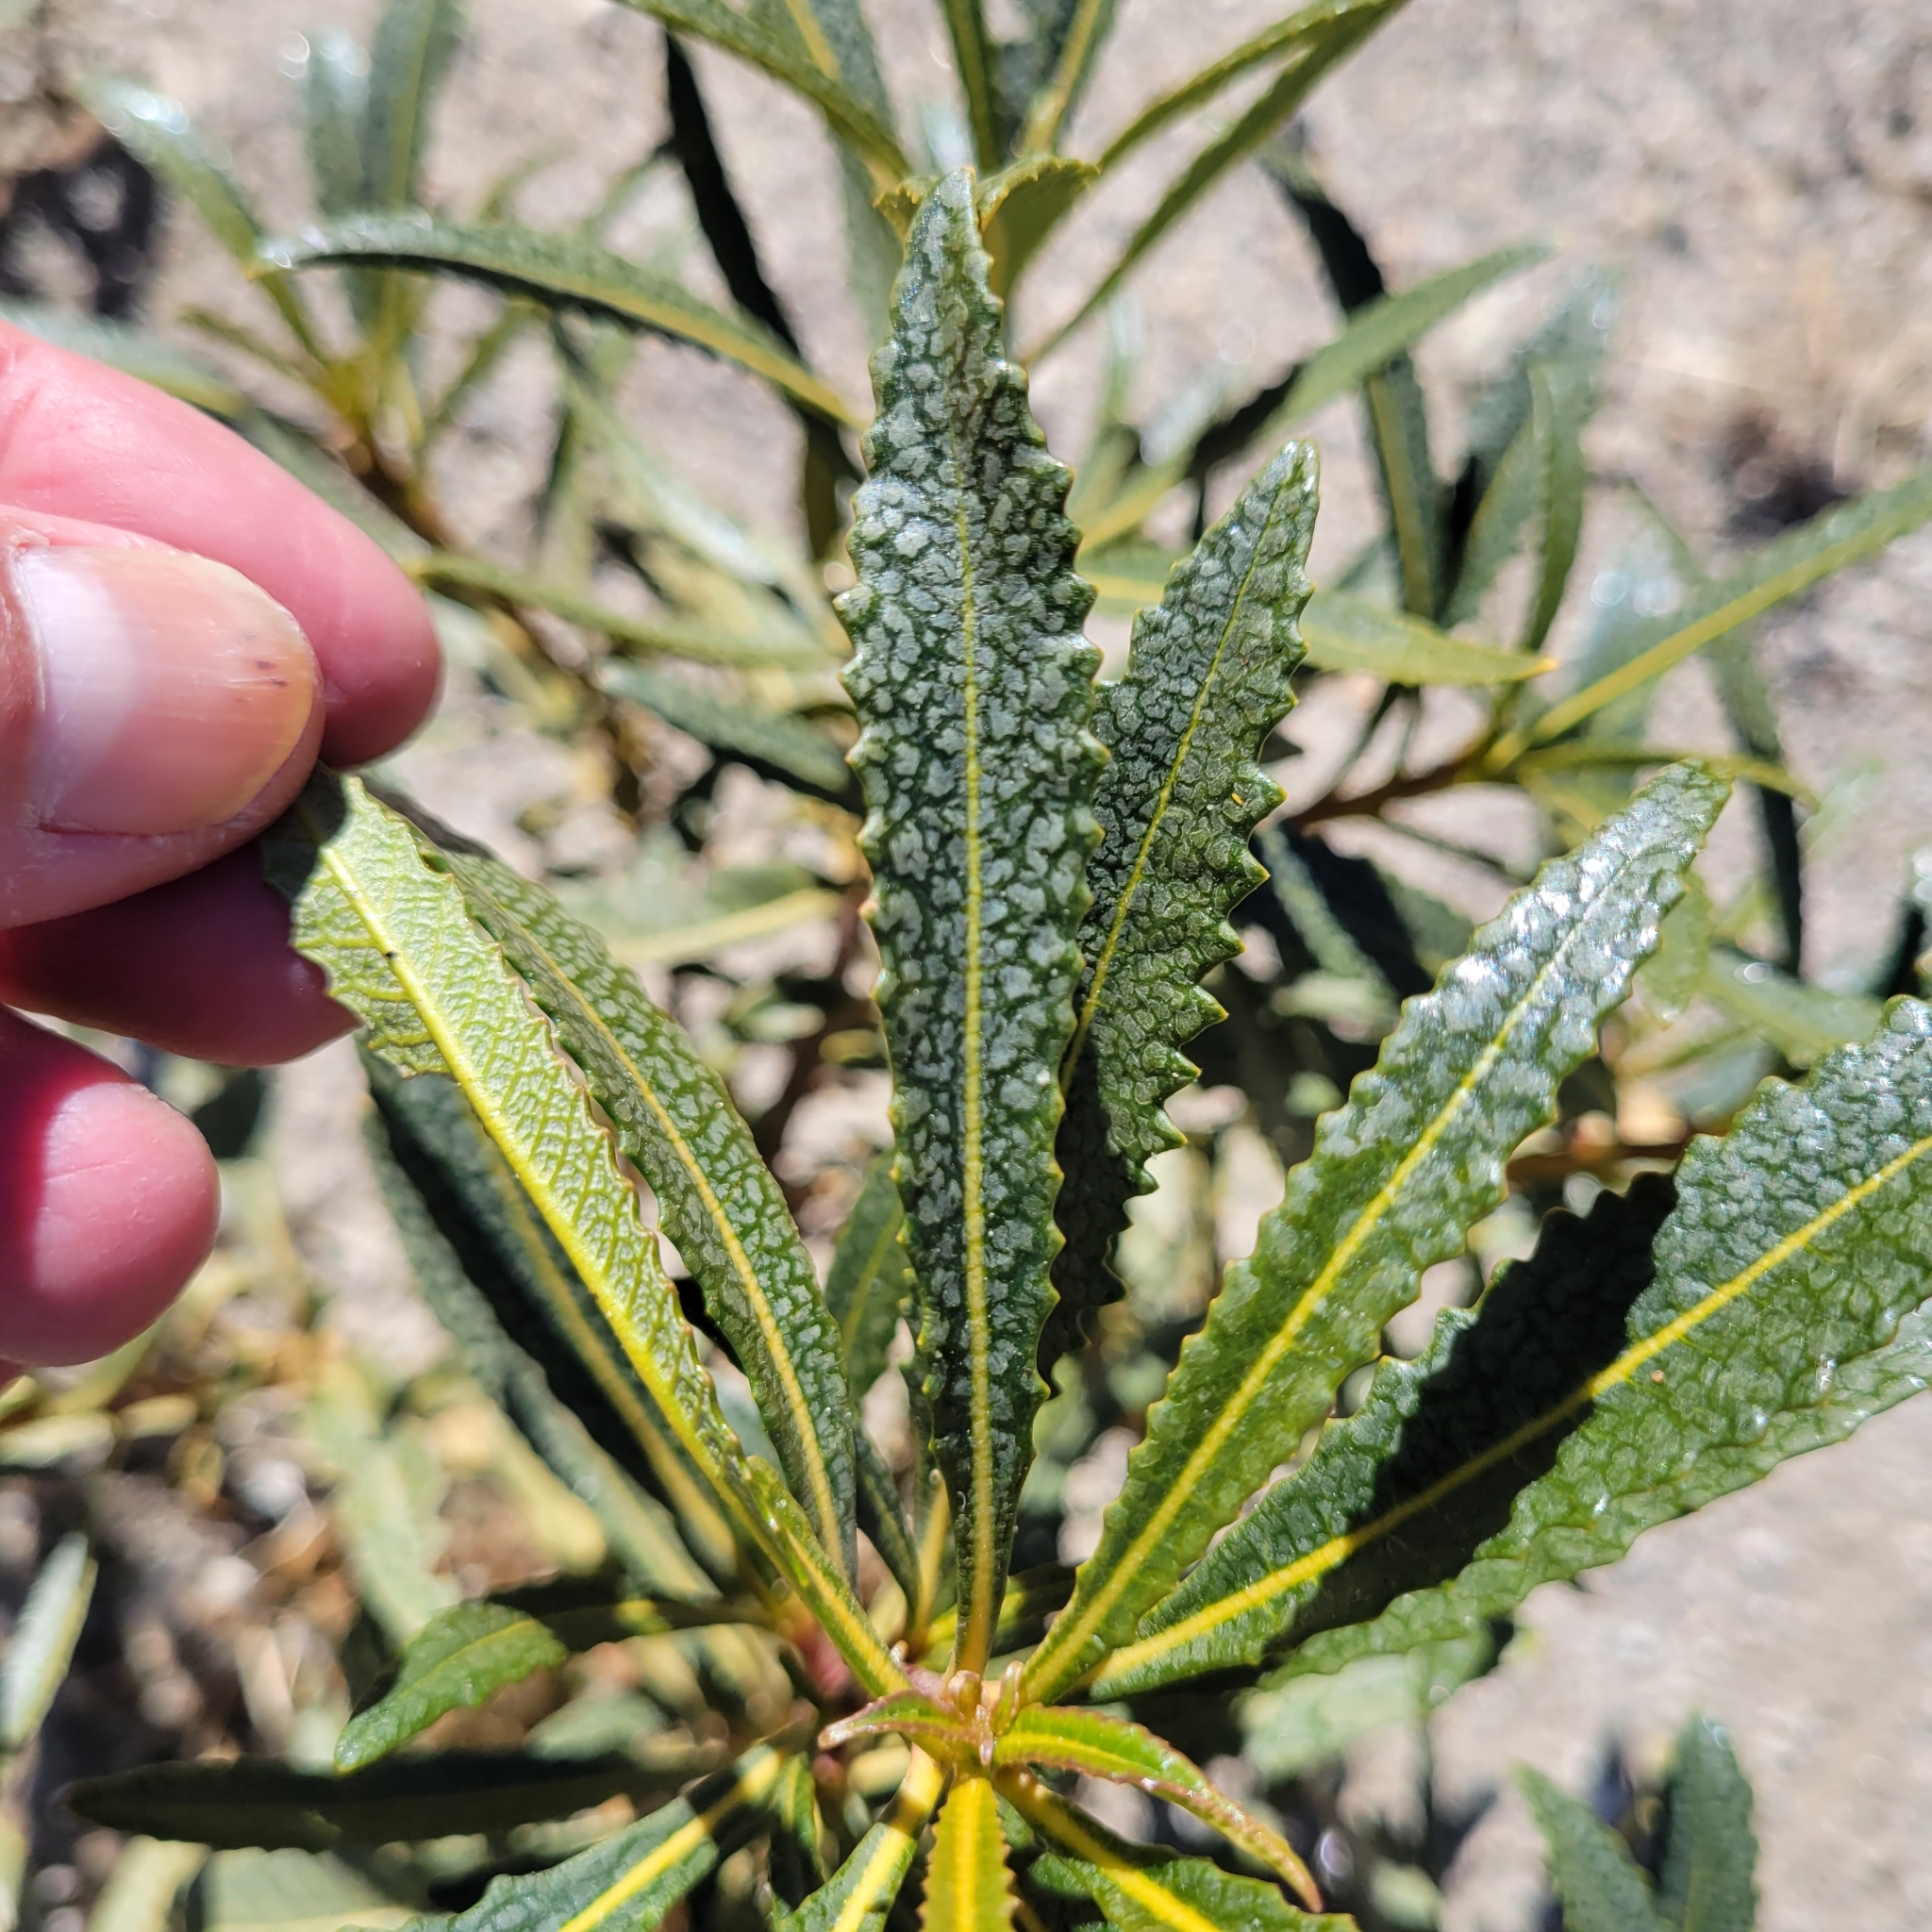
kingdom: Plantae
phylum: Tracheophyta
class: Magnoliopsida
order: Boraginales
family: Namaceae
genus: Eriodictyon
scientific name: Eriodictyon trichocalyx
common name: Hairy yerba-santa
